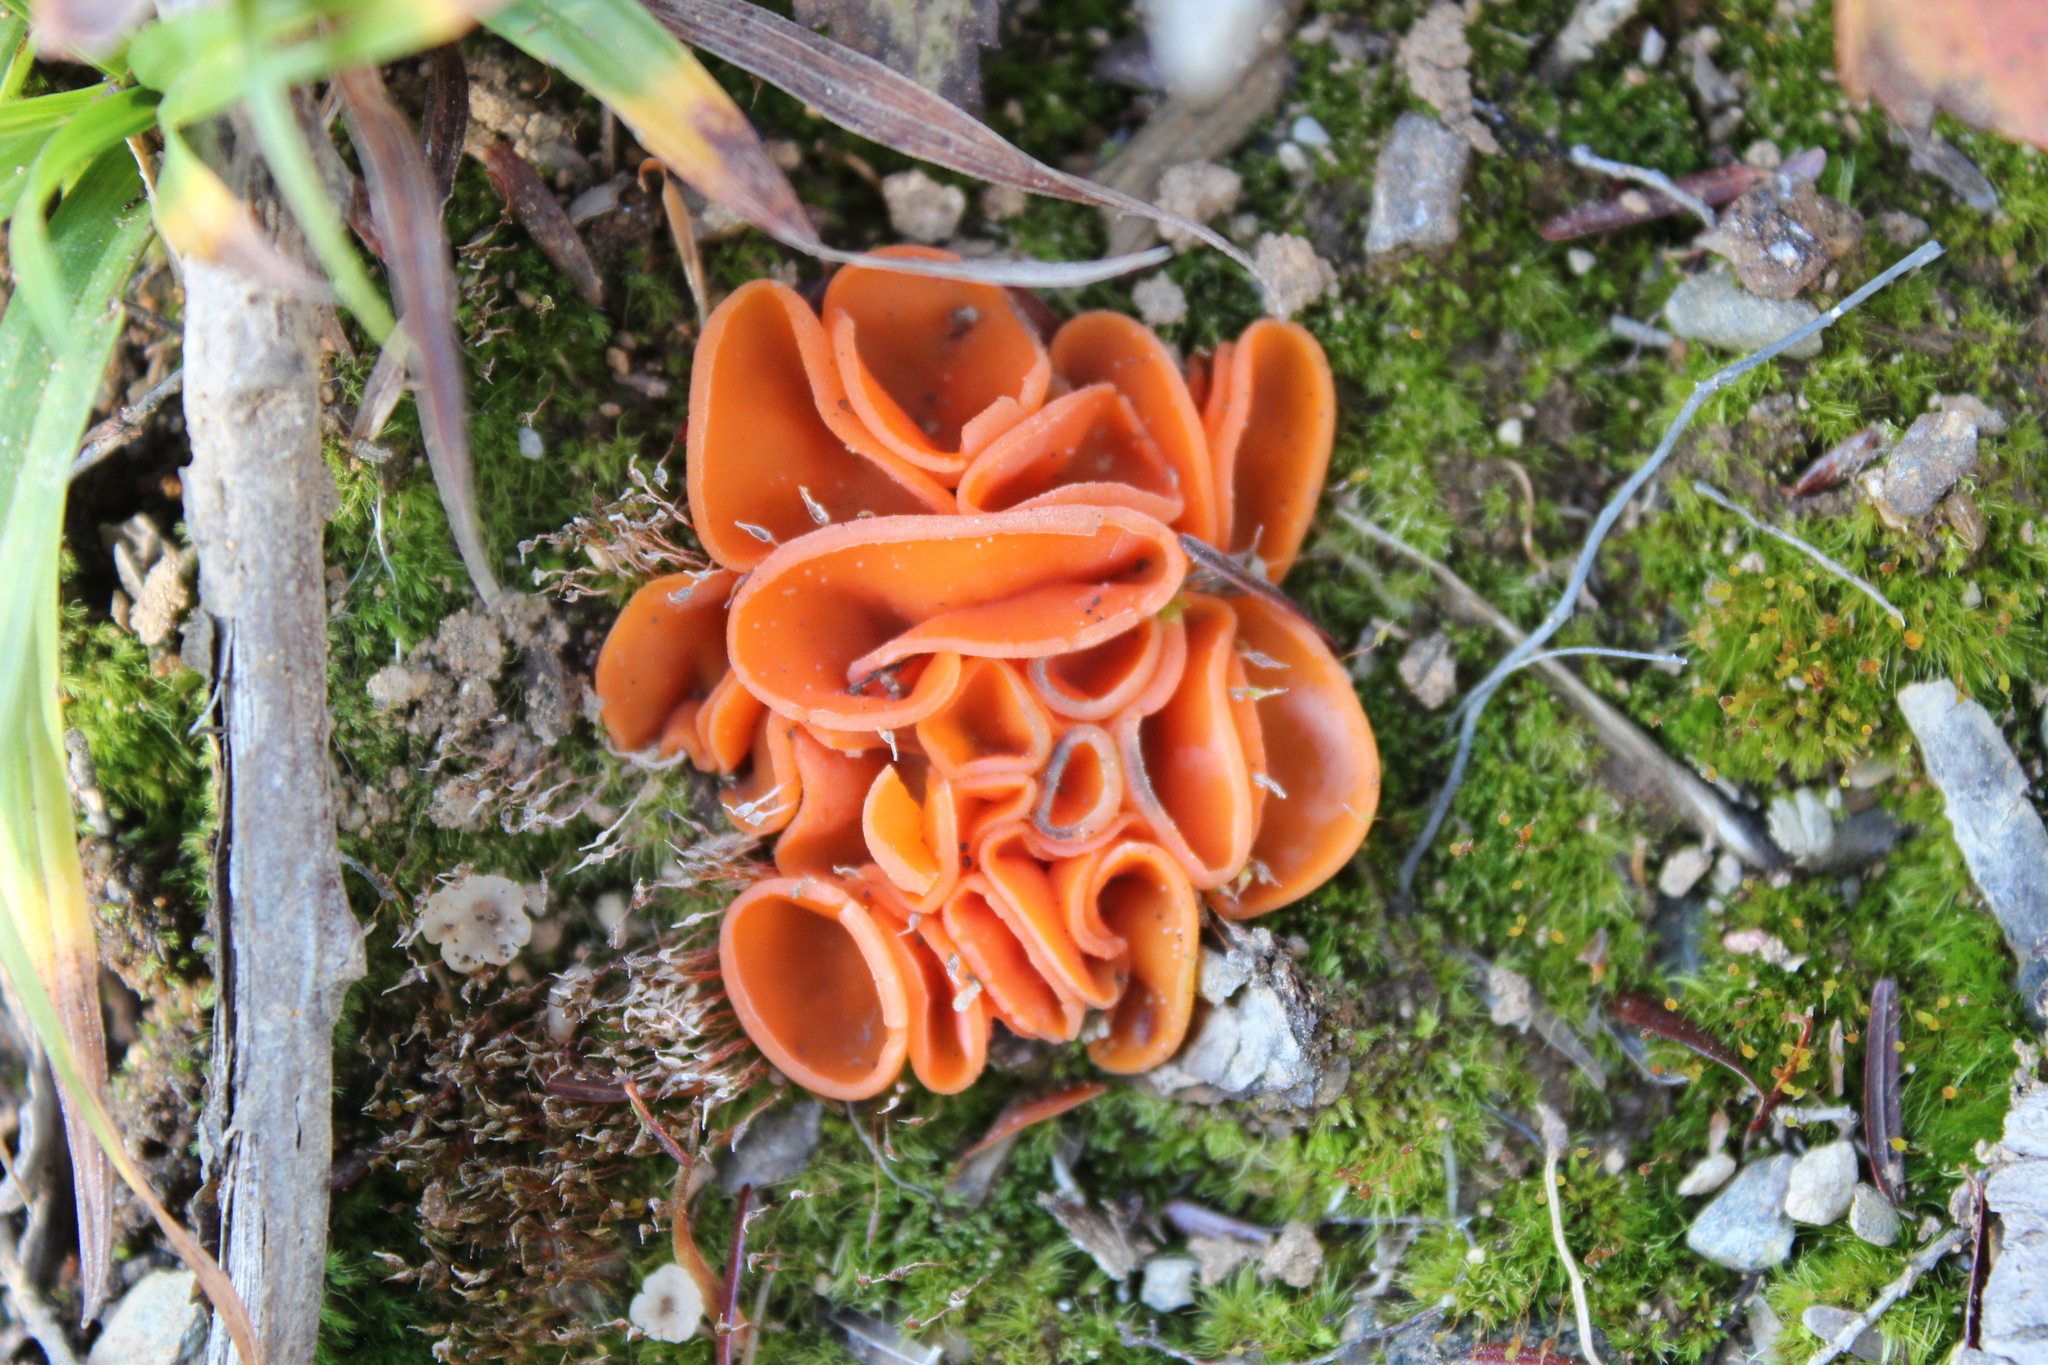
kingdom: Fungi
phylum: Ascomycota
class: Pezizomycetes
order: Pezizales
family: Pyronemataceae
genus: Aleuria
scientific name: Aleuria aurantia
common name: Orange peel fungus
